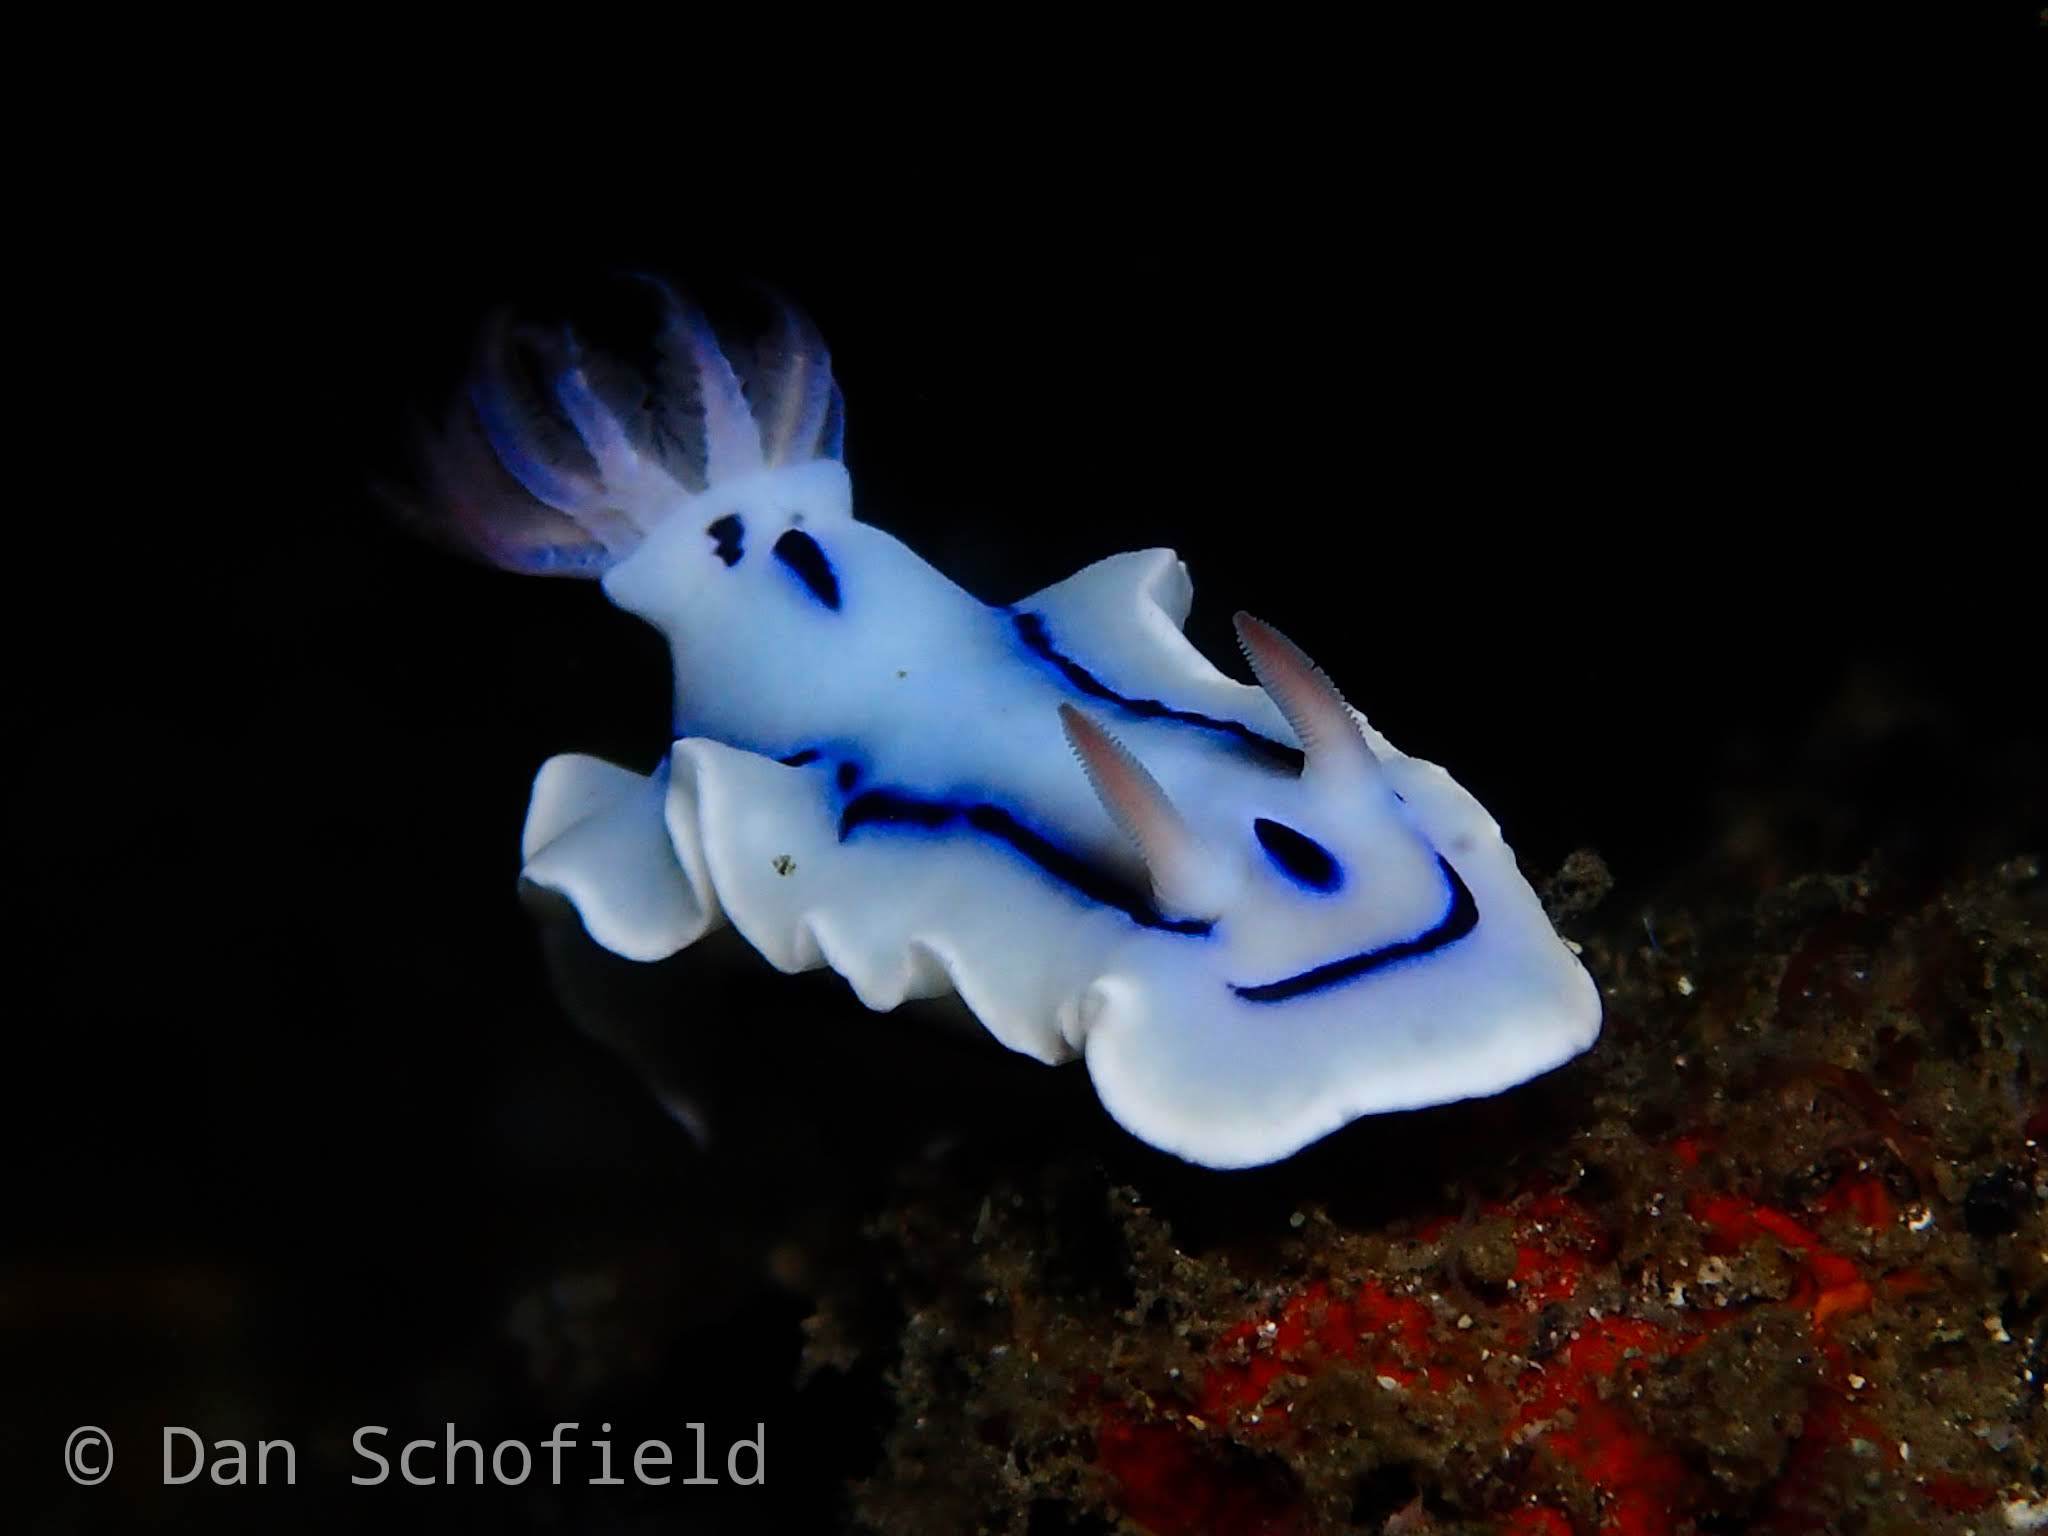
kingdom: Animalia
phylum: Mollusca
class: Gastropoda
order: Nudibranchia
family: Chromodorididae
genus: Chromodoris
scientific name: Chromodoris lochi
